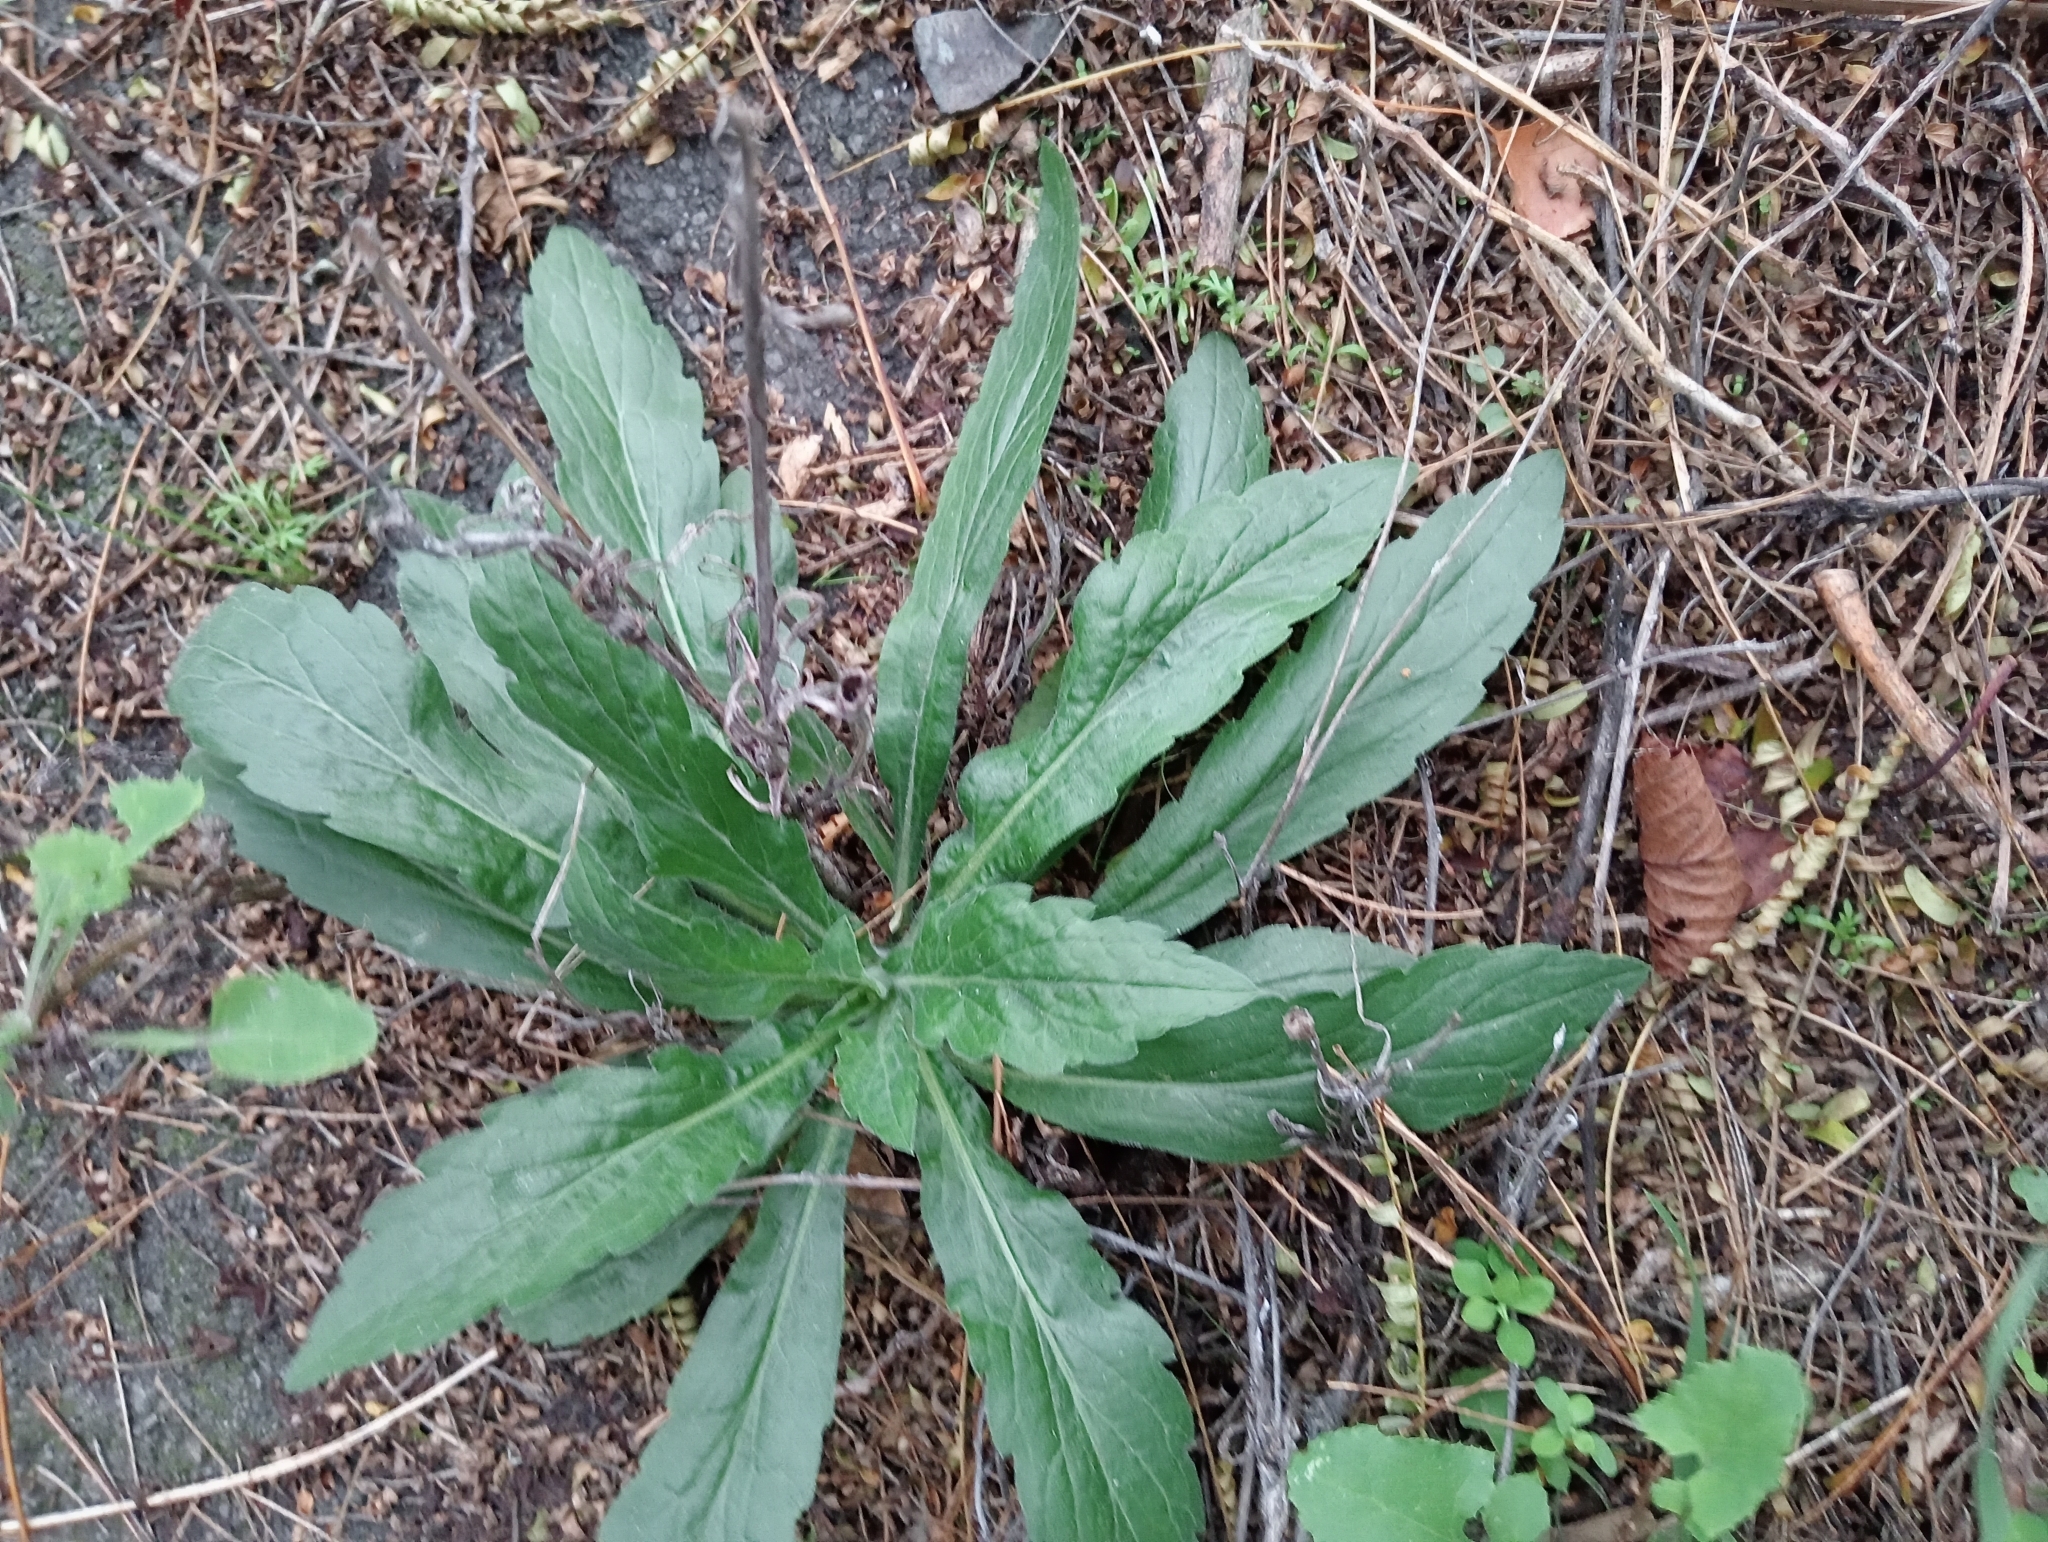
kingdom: Plantae
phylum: Tracheophyta
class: Magnoliopsida
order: Asterales
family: Asteraceae
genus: Erigeron
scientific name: Erigeron sumatrensis
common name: Daisy
